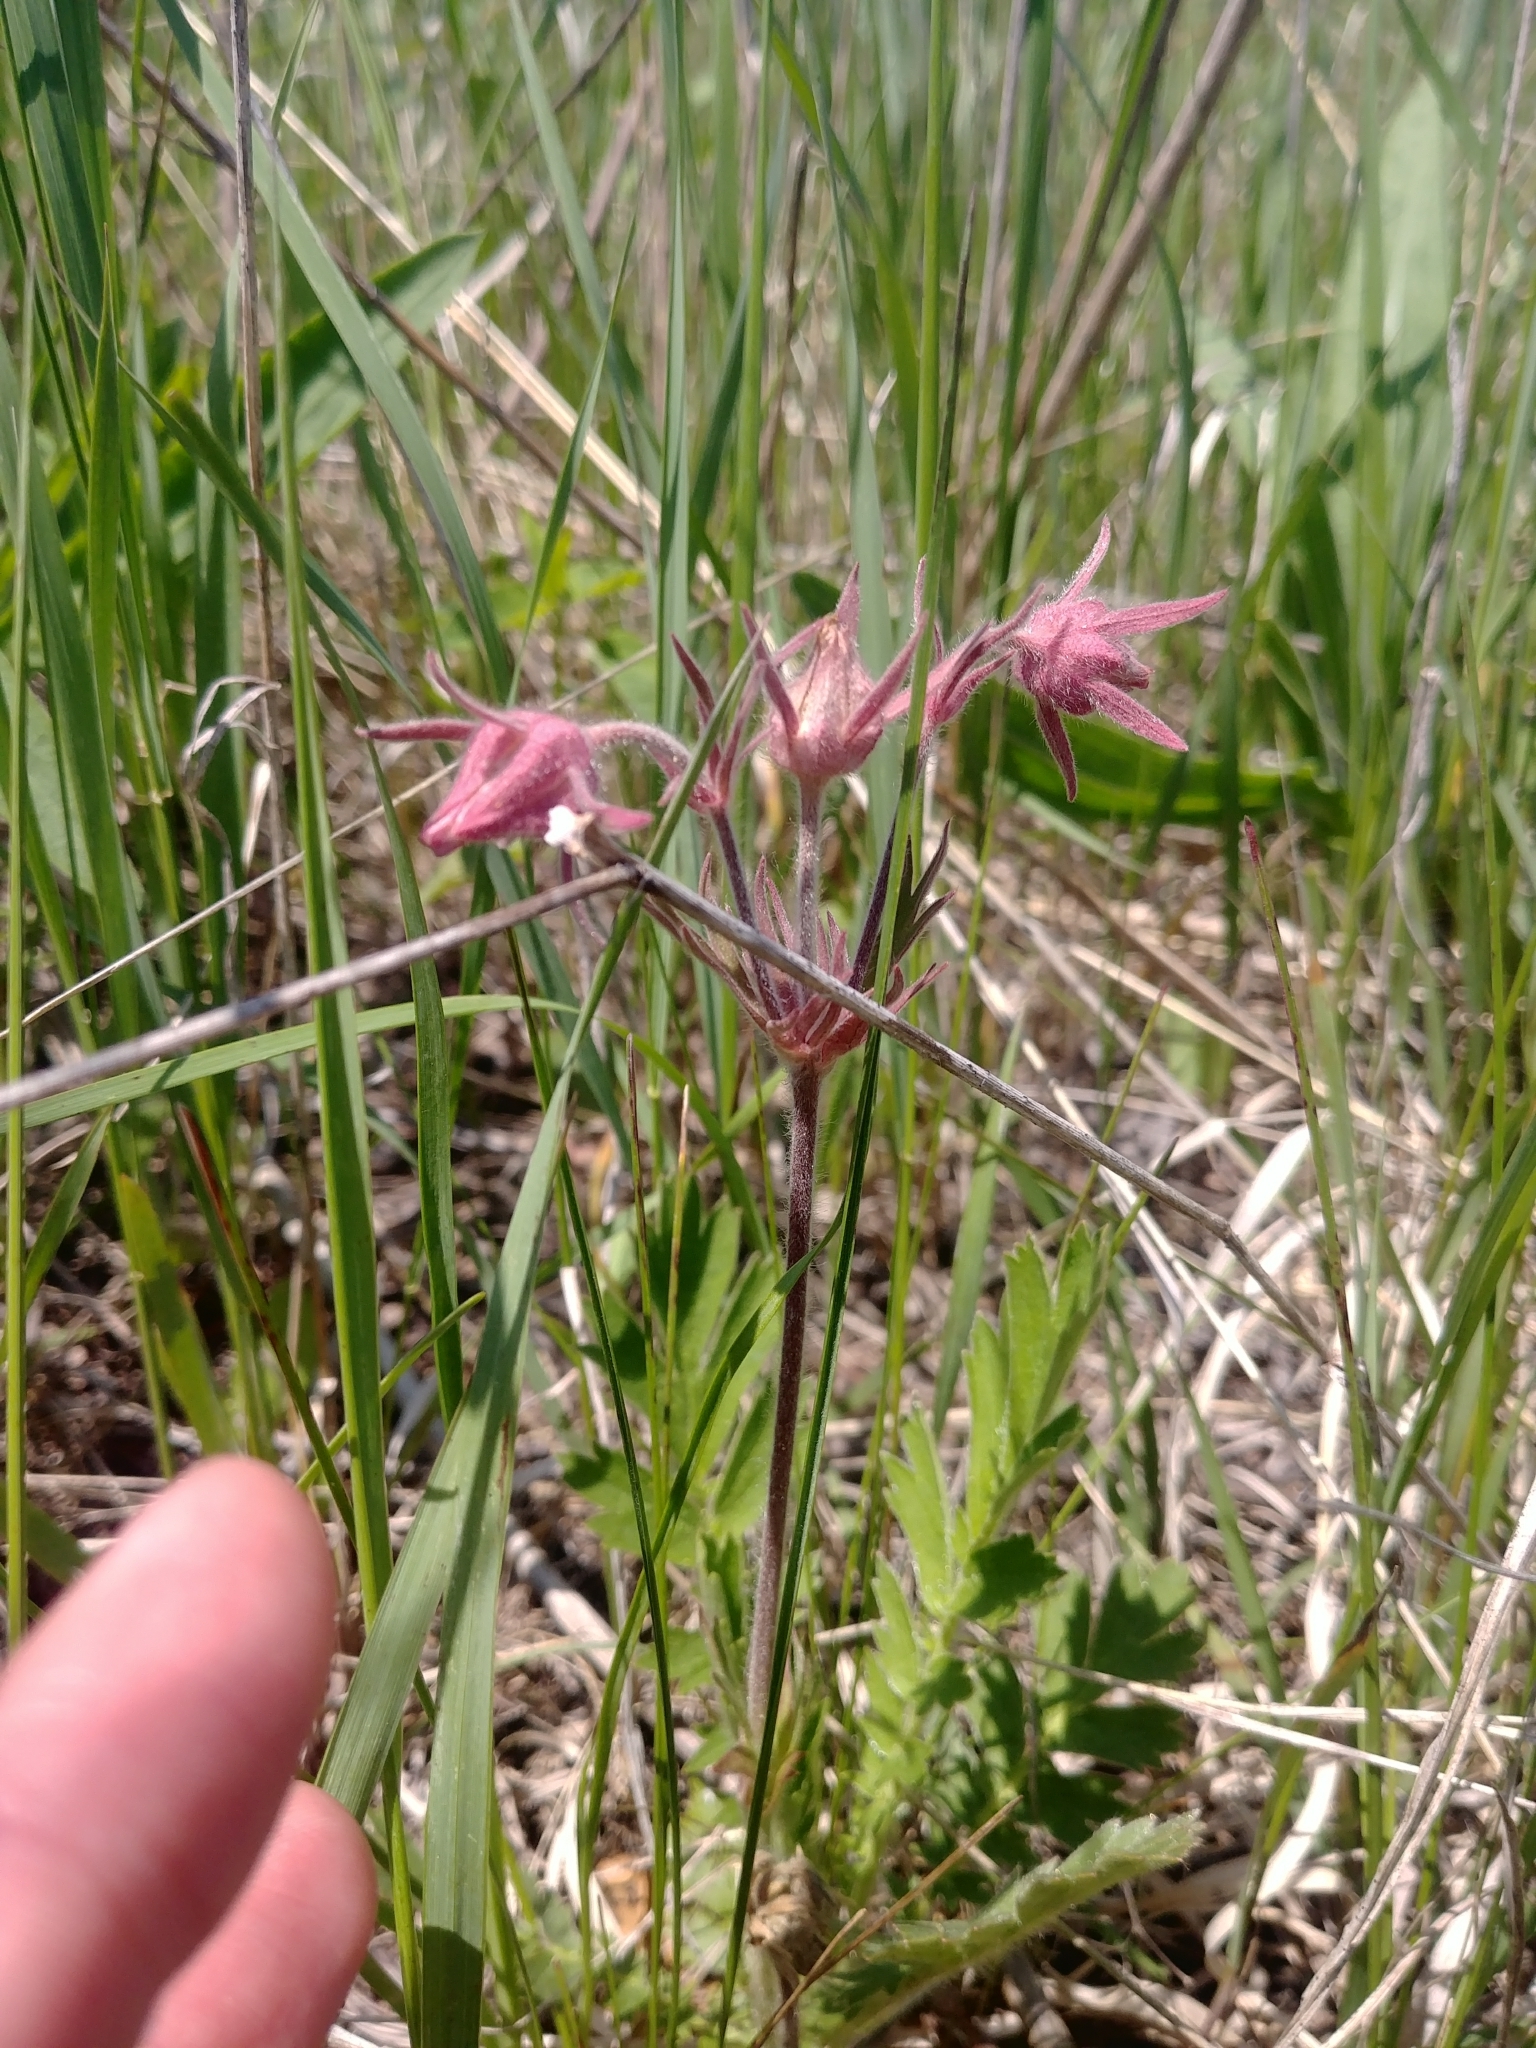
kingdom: Plantae
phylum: Tracheophyta
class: Magnoliopsida
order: Rosales
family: Rosaceae
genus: Geum
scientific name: Geum triflorum
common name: Old man's whiskers
